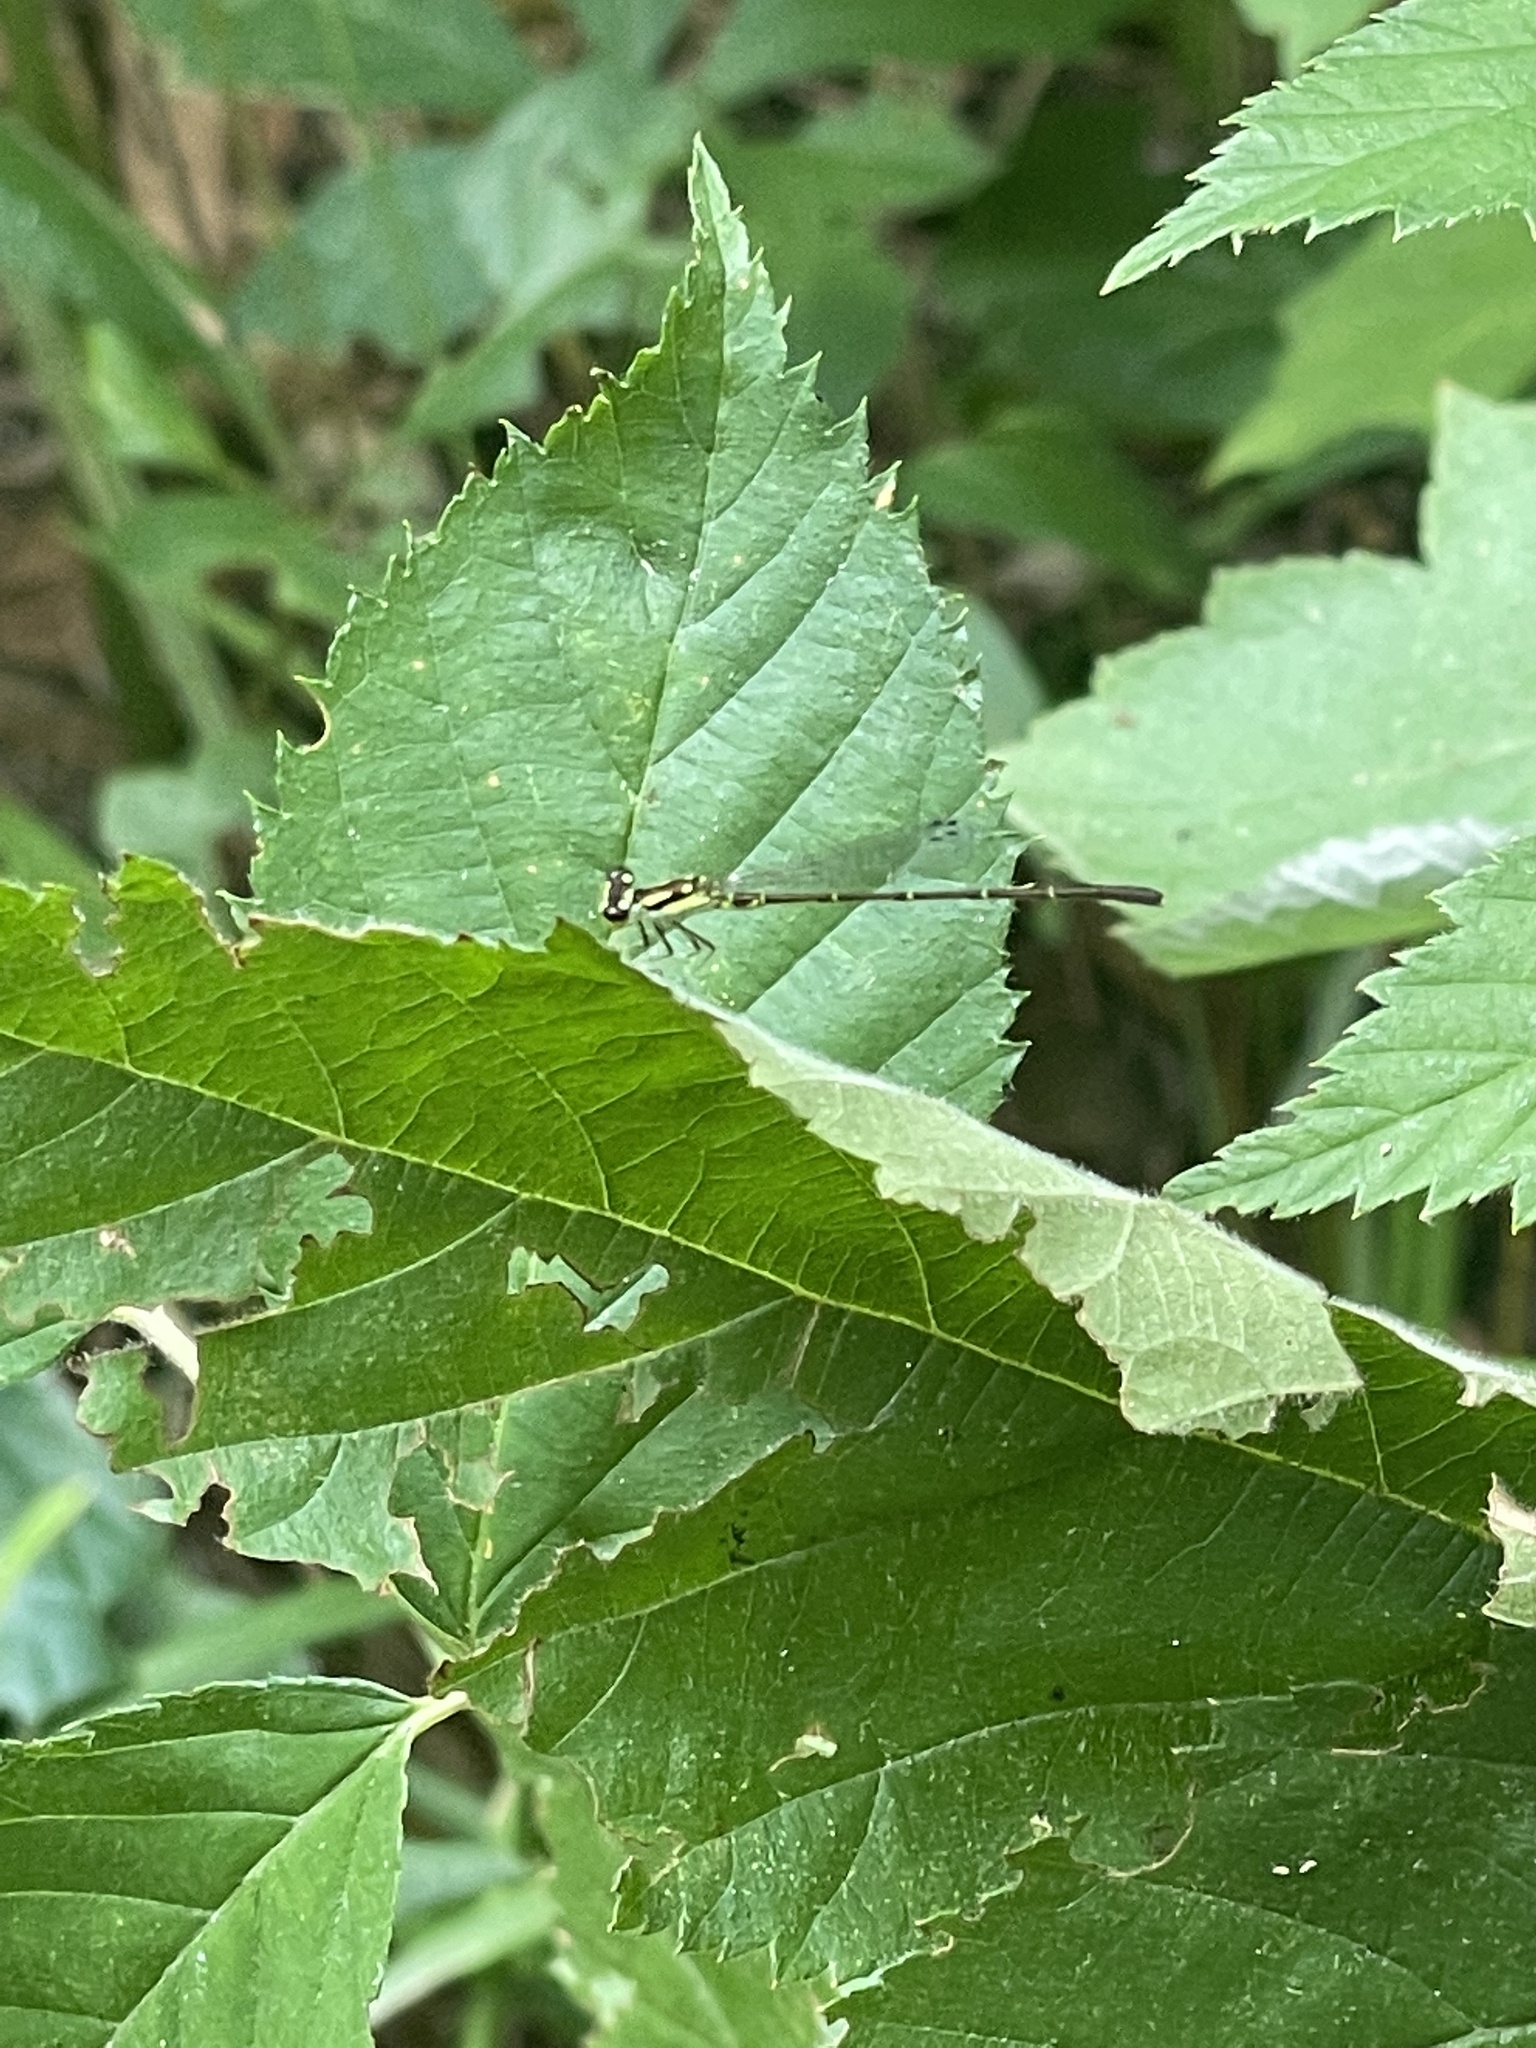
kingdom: Animalia
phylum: Arthropoda
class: Insecta
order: Odonata
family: Coenagrionidae
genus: Ischnura
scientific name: Ischnura posita
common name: Fragile forktail
